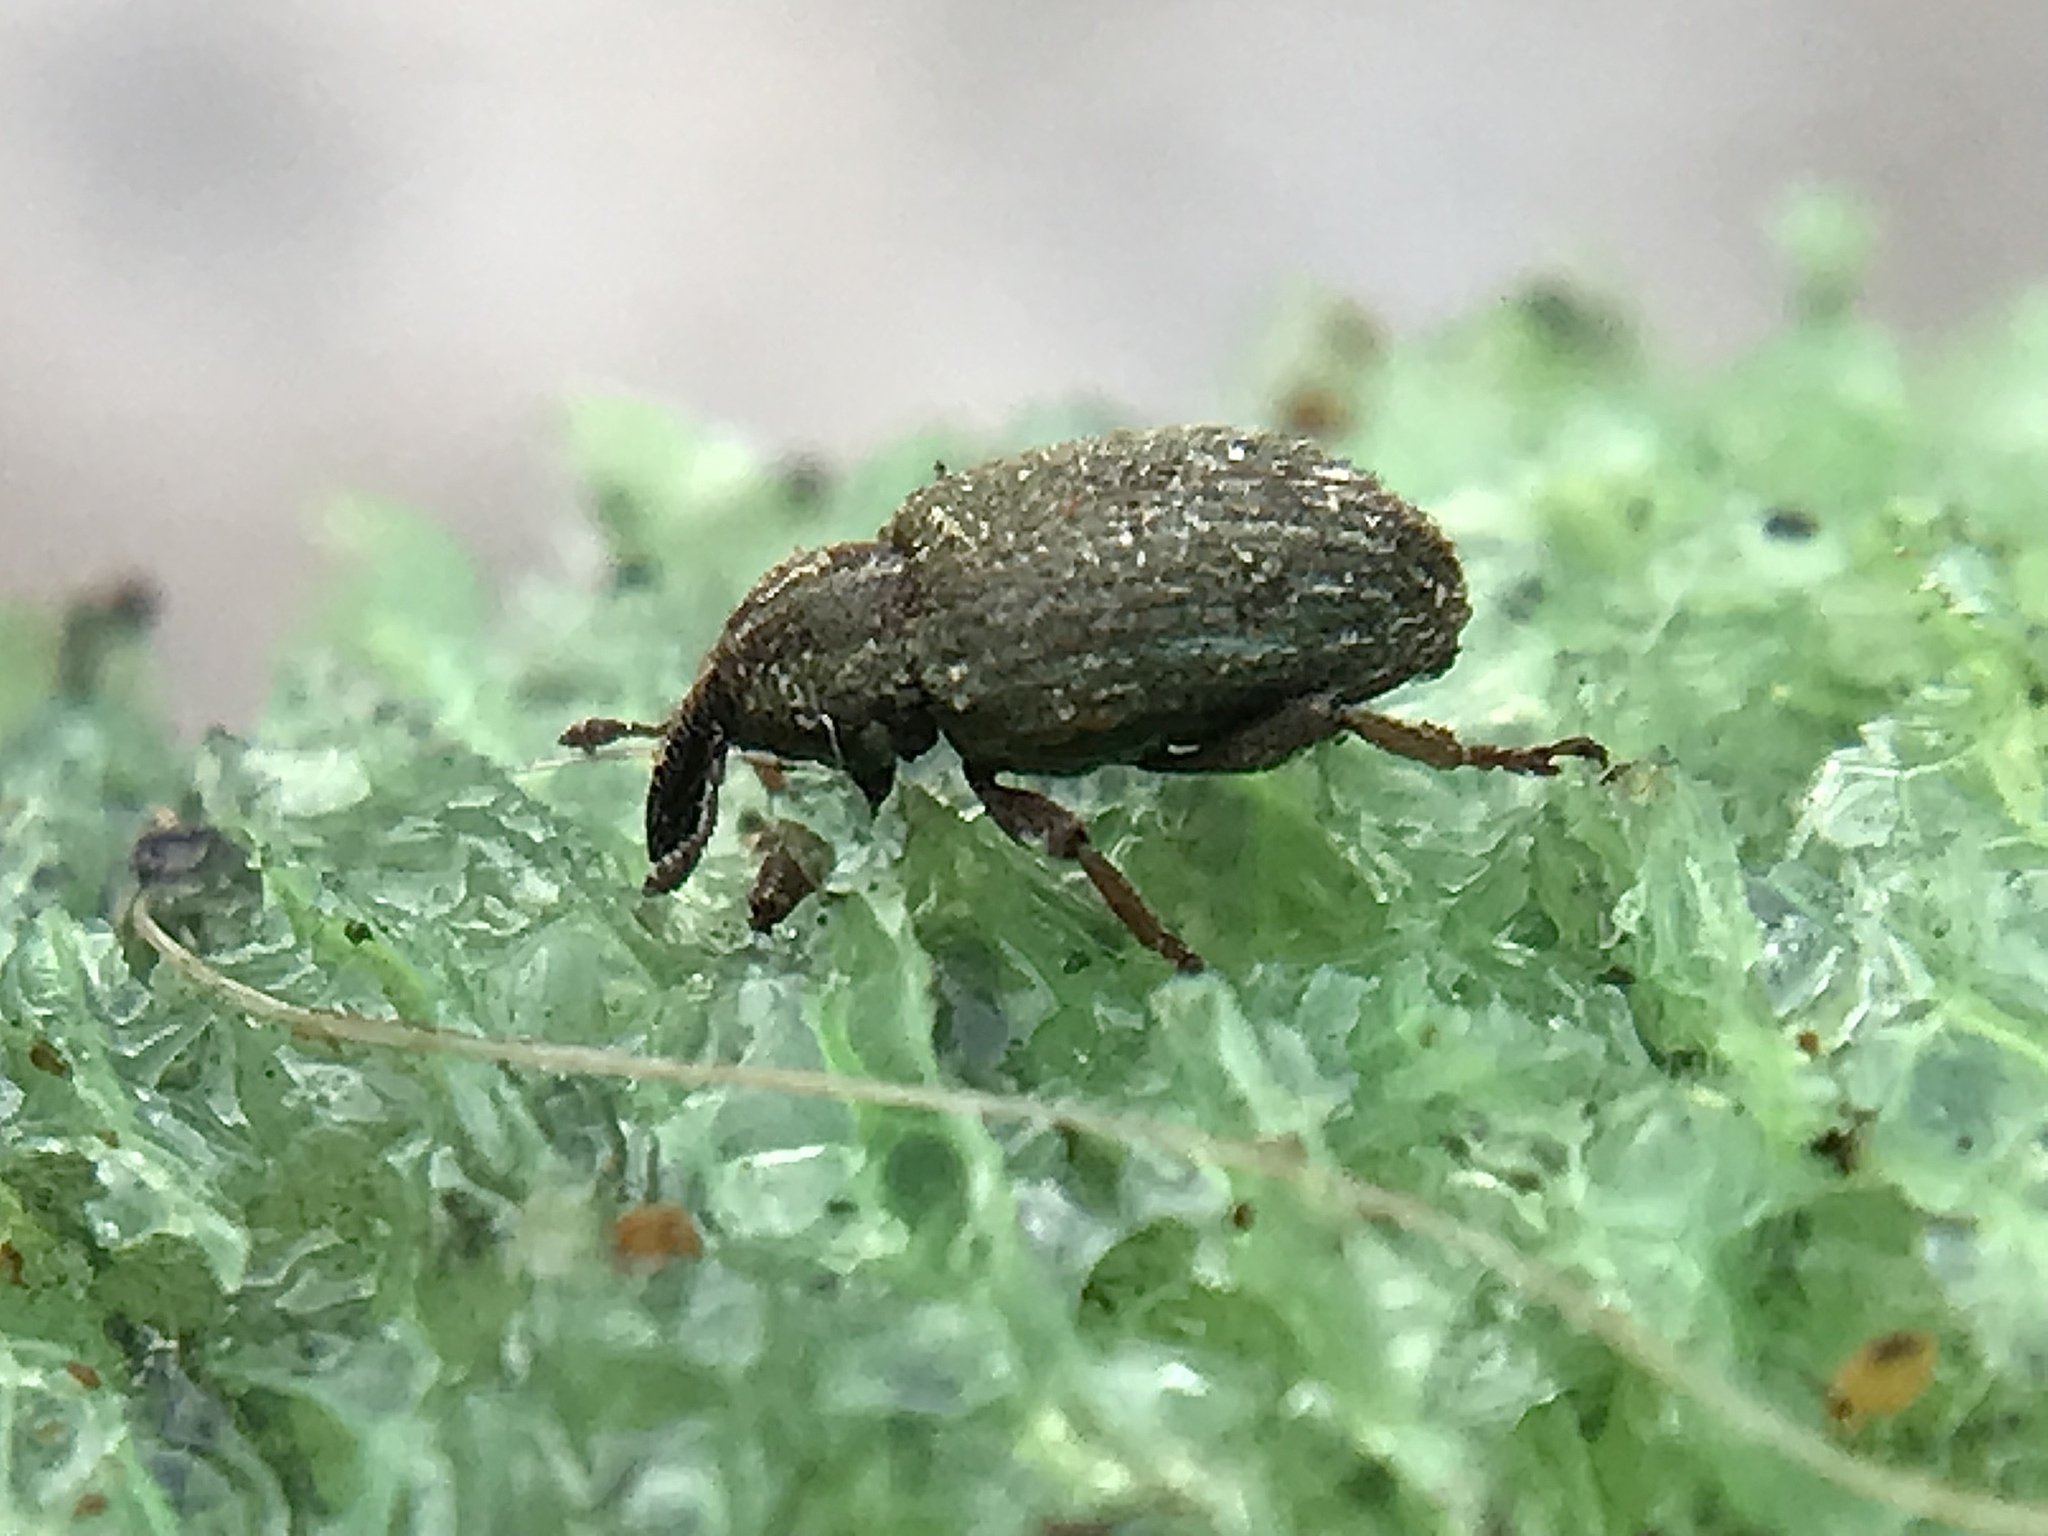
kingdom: Animalia
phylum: Arthropoda
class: Insecta
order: Coleoptera
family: Curculionidae
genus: Hypera
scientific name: Hypera nigrirostris
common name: Black-beaked green weevil
